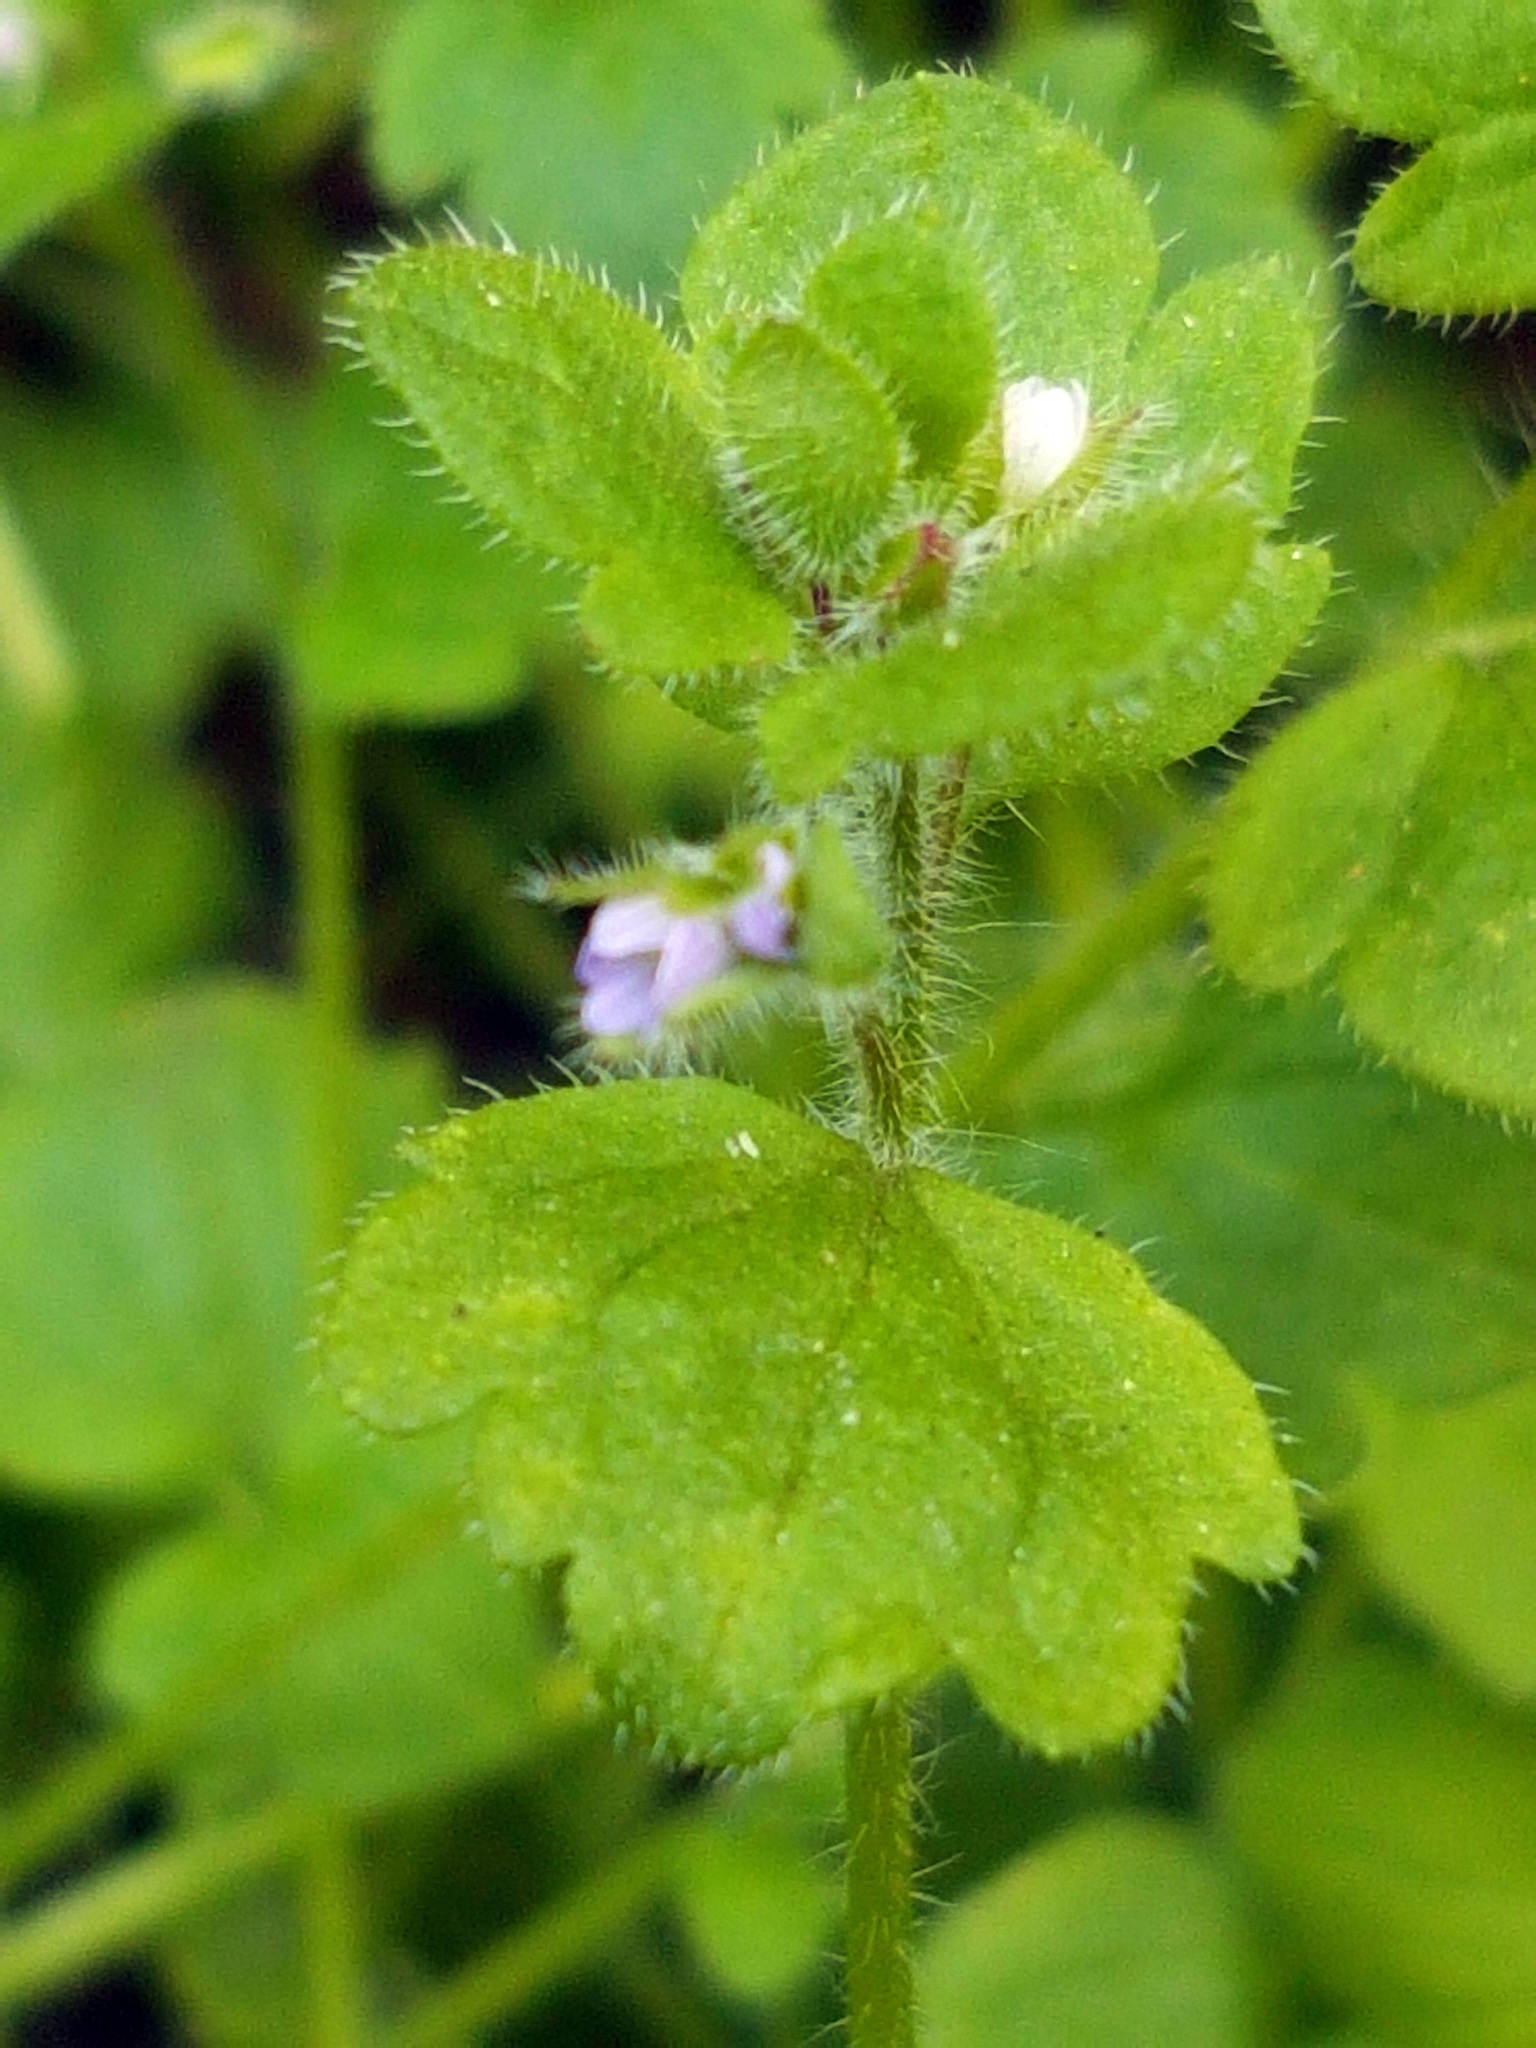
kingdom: Plantae
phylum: Tracheophyta
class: Magnoliopsida
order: Lamiales
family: Plantaginaceae
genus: Veronica
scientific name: Veronica hederifolia
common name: Ivy-leaved speedwell
